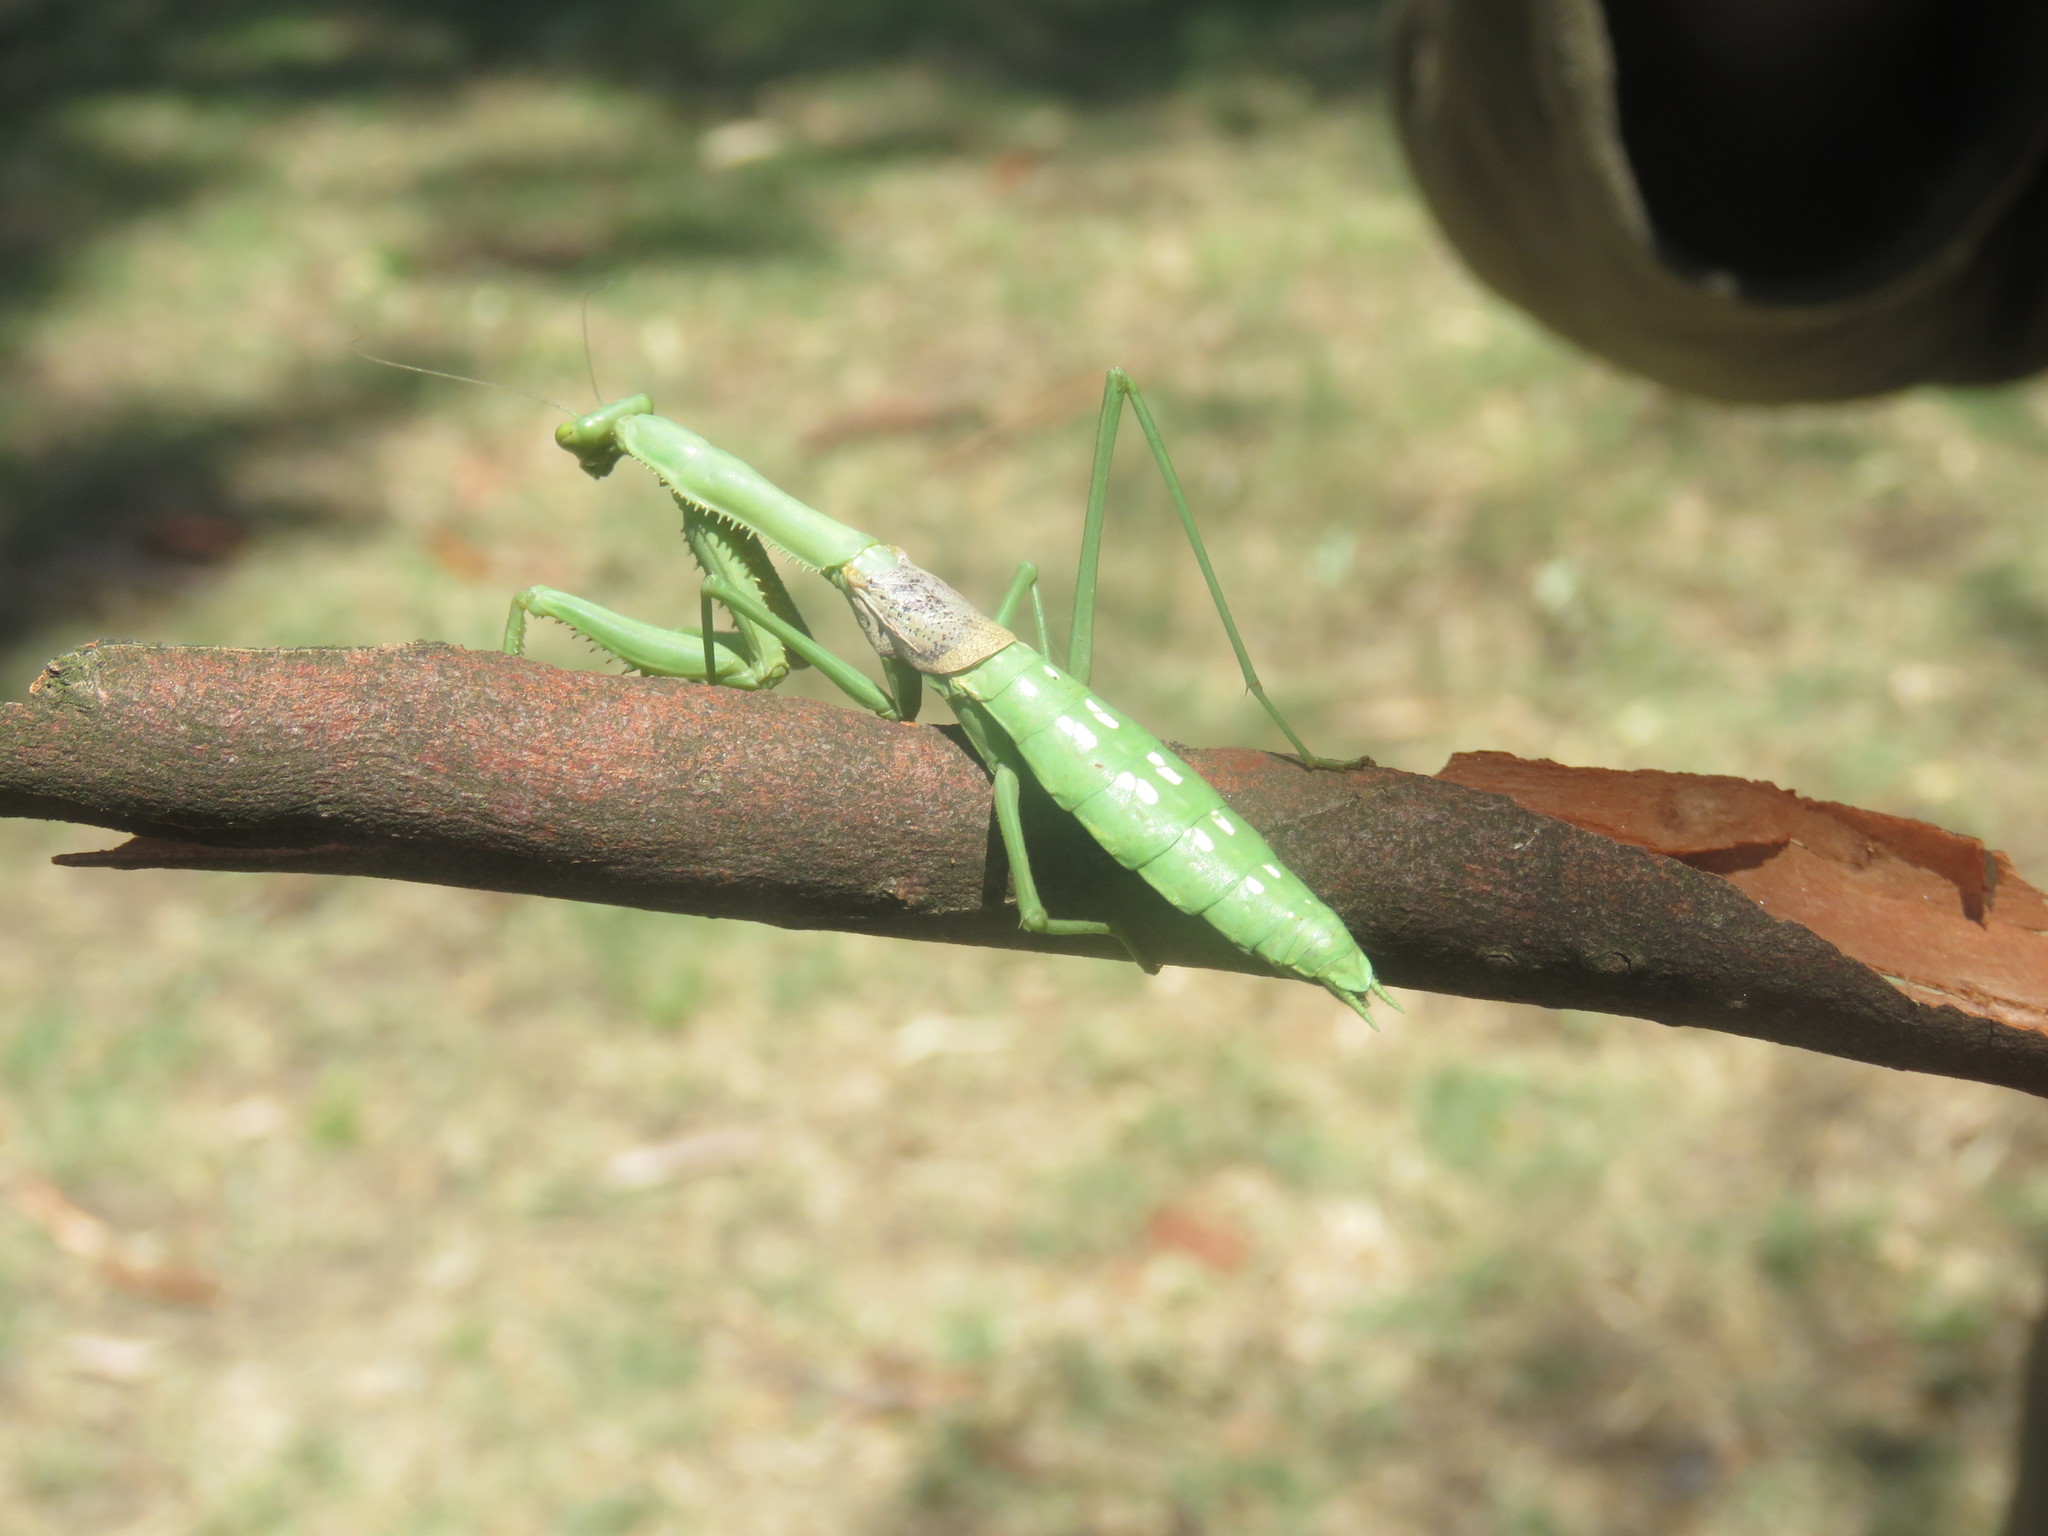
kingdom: Animalia
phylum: Arthropoda
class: Insecta
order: Mantodea
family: Coptopterygidae
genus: Coptopteryx
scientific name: Coptopteryx gayi
